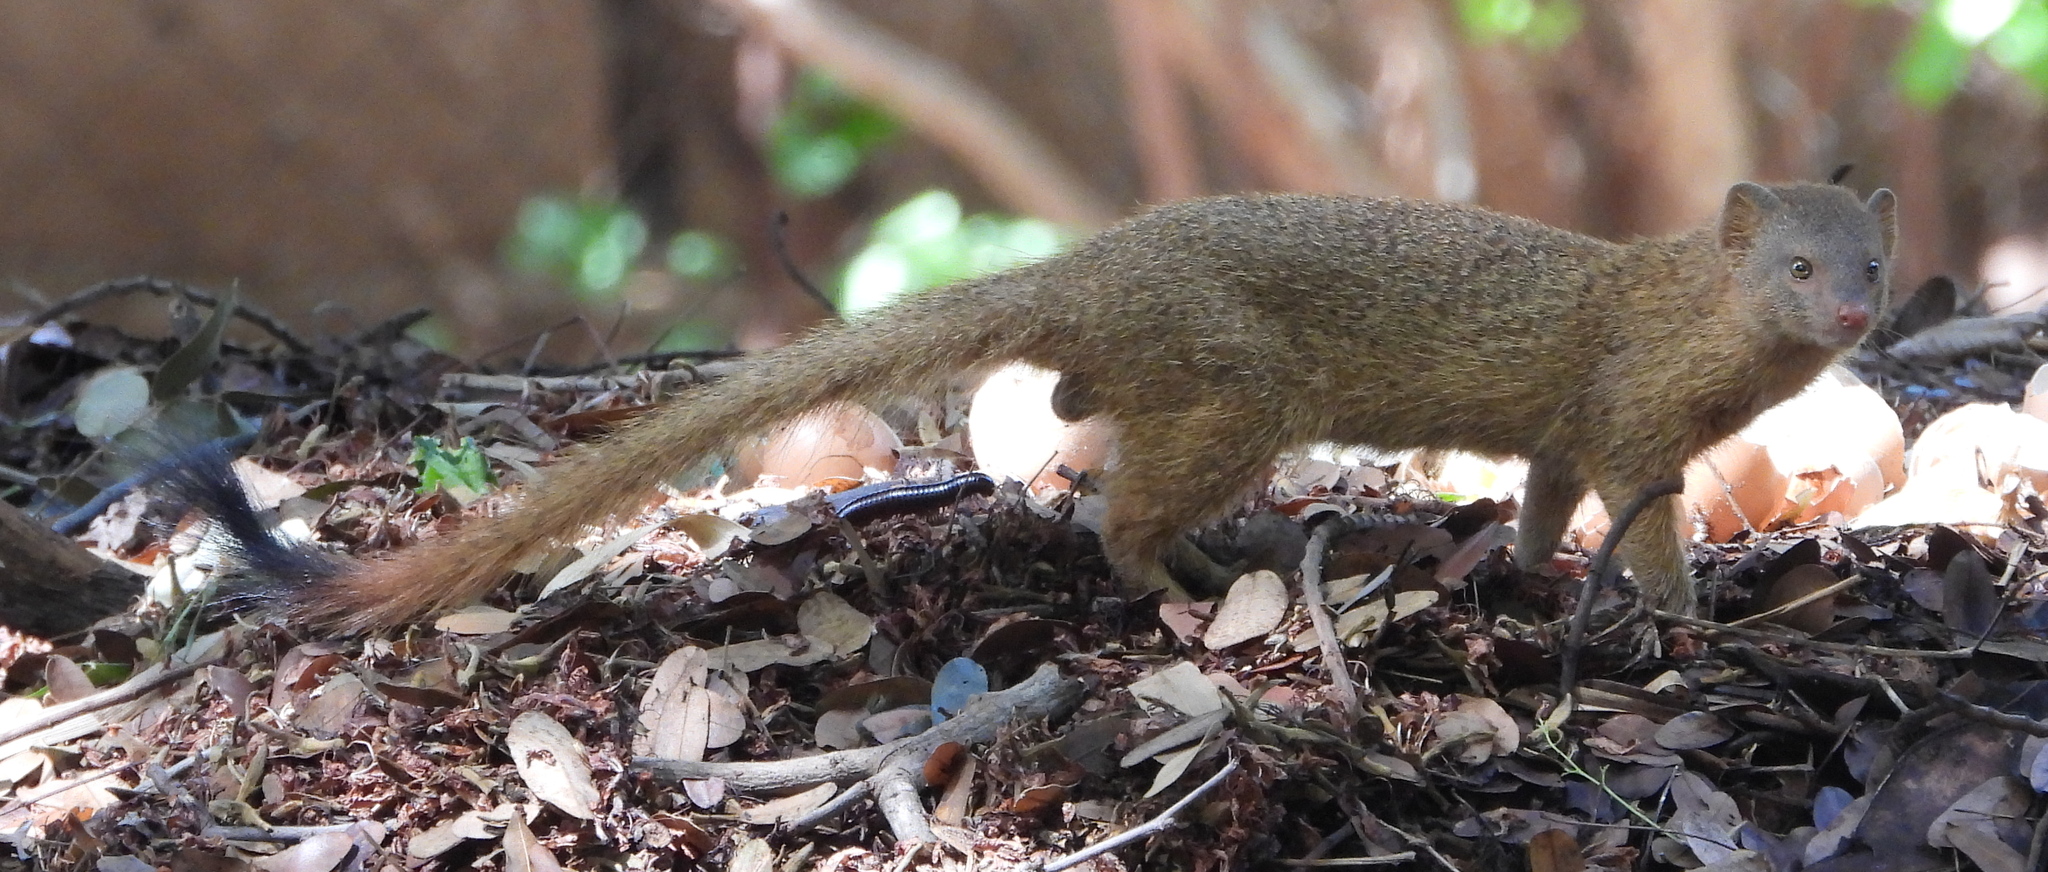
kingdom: Animalia
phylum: Chordata
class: Mammalia
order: Carnivora
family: Herpestidae
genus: Galerella
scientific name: Galerella sanguinea
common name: Slender mongoose
